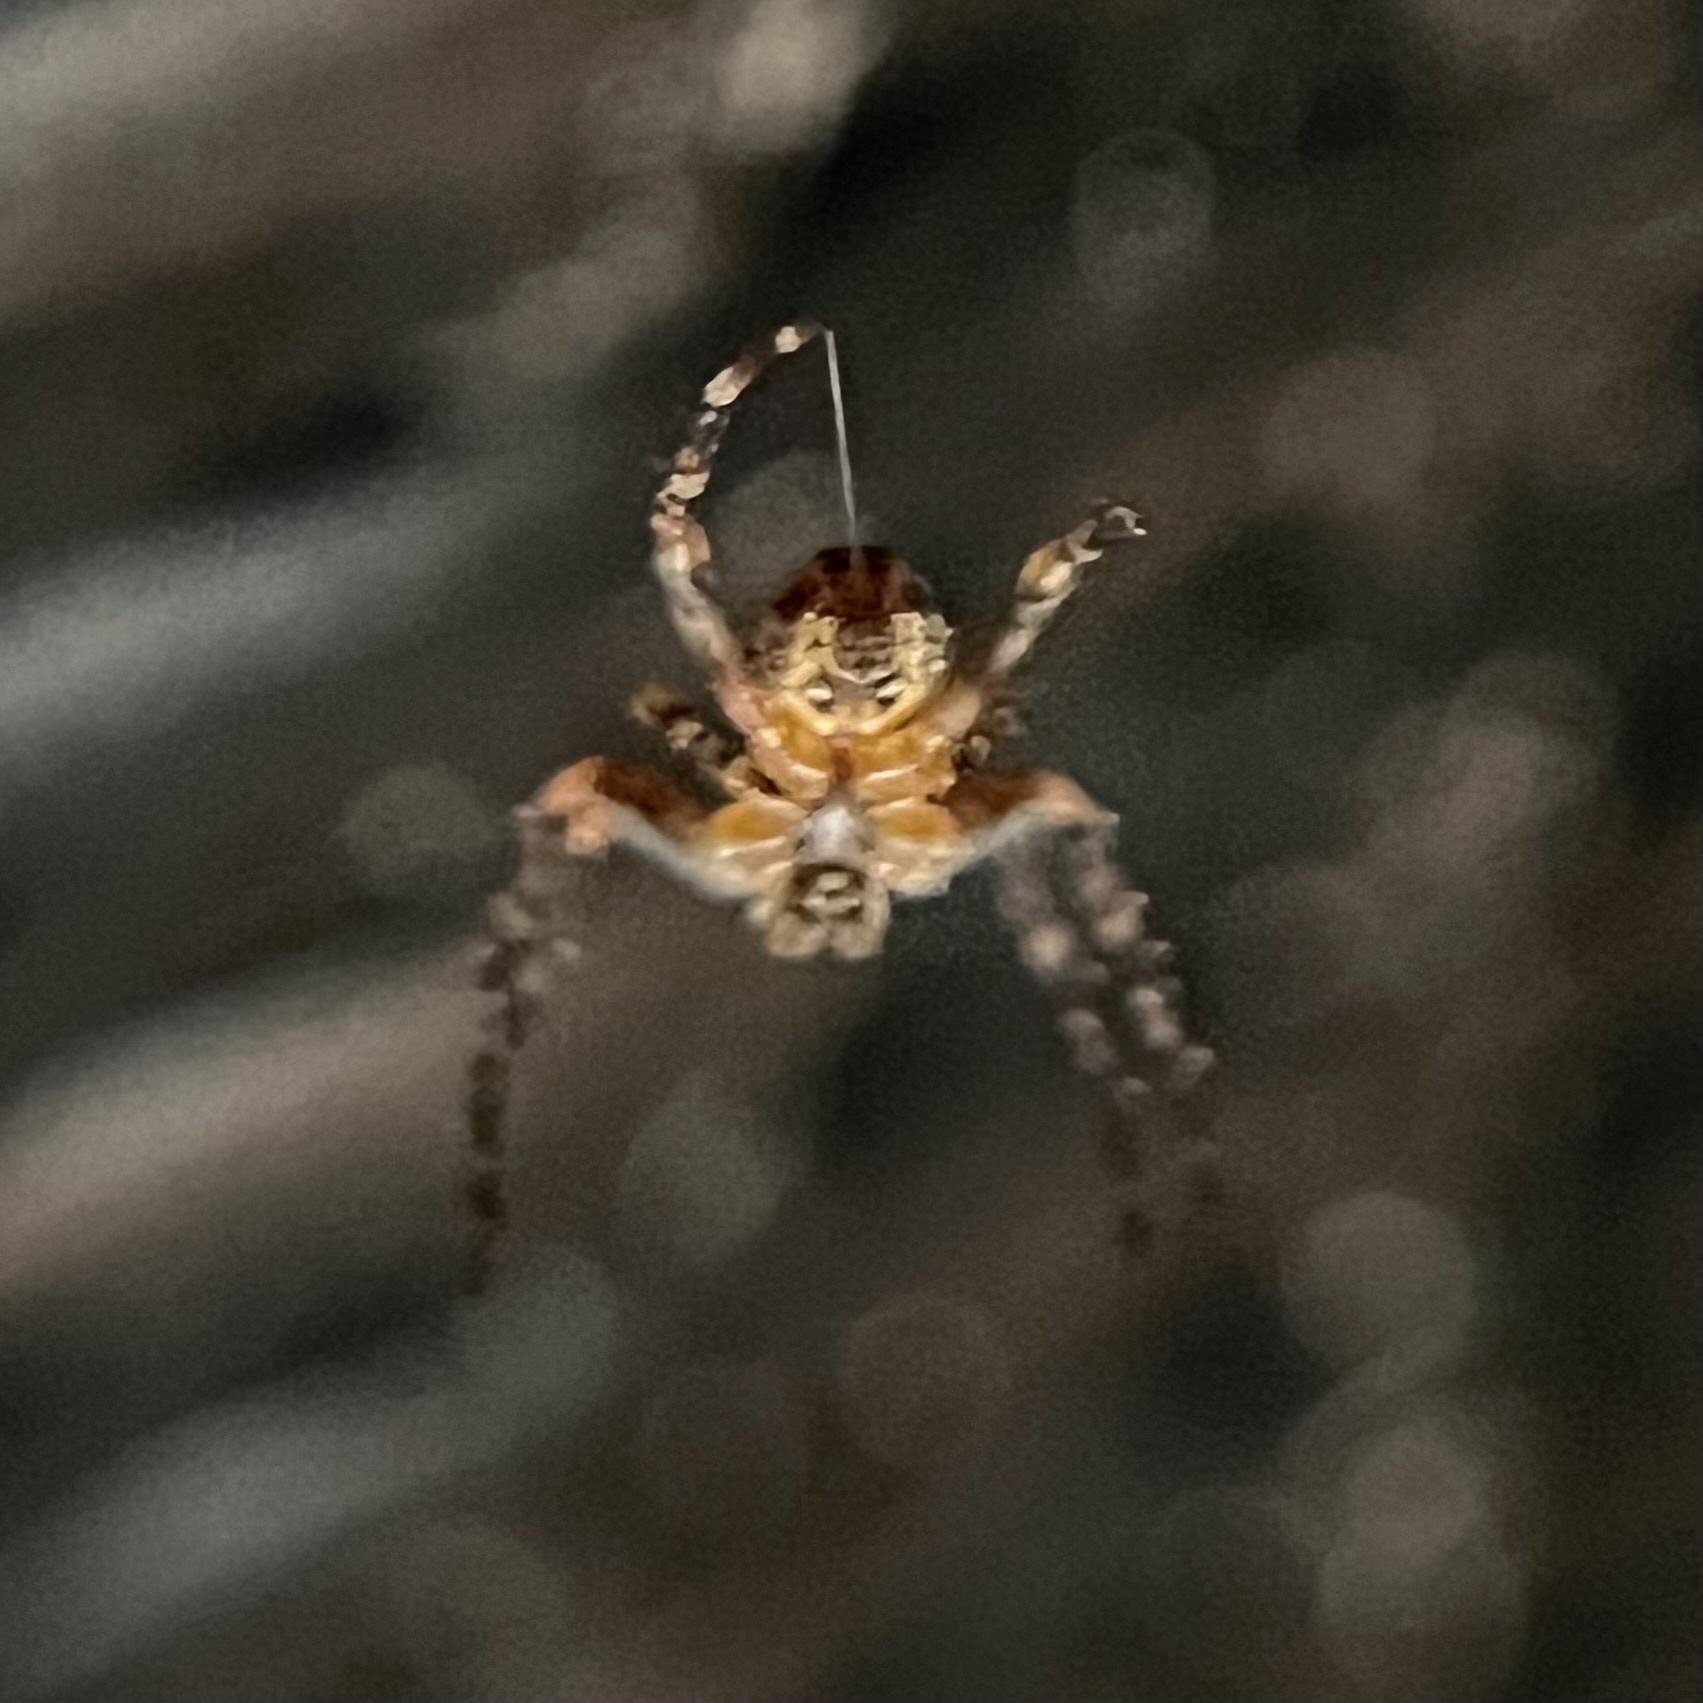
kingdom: Animalia
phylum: Arthropoda
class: Arachnida
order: Araneae
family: Araneidae
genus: Araneus
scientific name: Araneus diadematus
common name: Cross orbweaver
